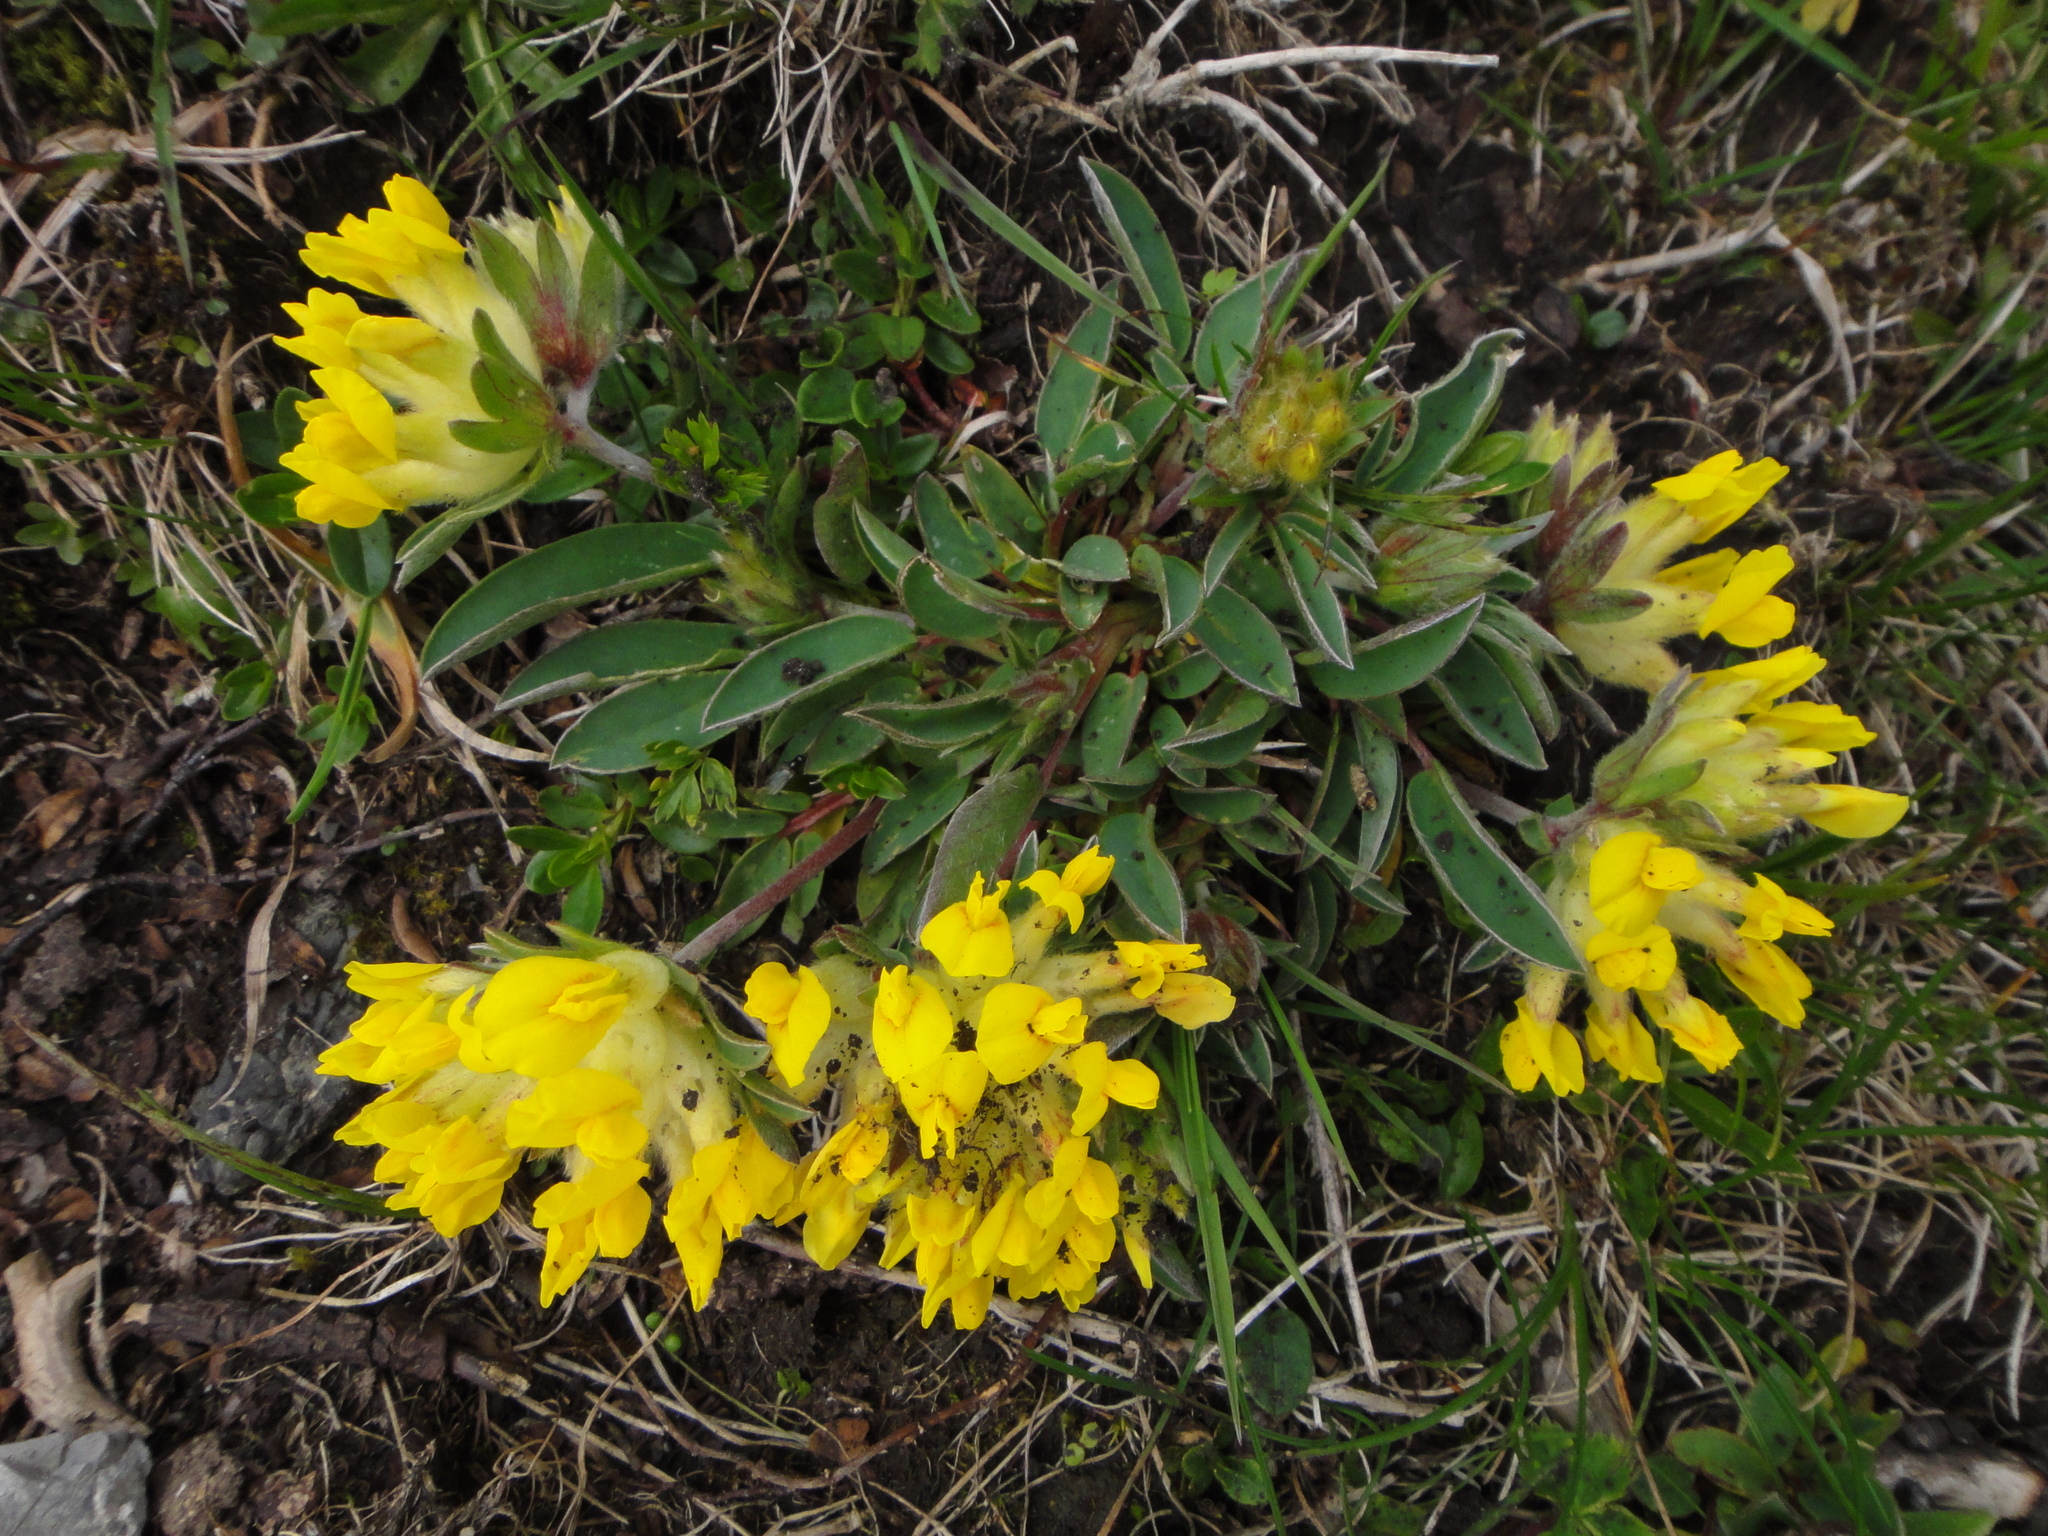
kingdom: Plantae
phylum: Tracheophyta
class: Magnoliopsida
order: Fabales
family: Fabaceae
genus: Anthyllis
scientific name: Anthyllis vulneraria
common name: Kidney vetch
